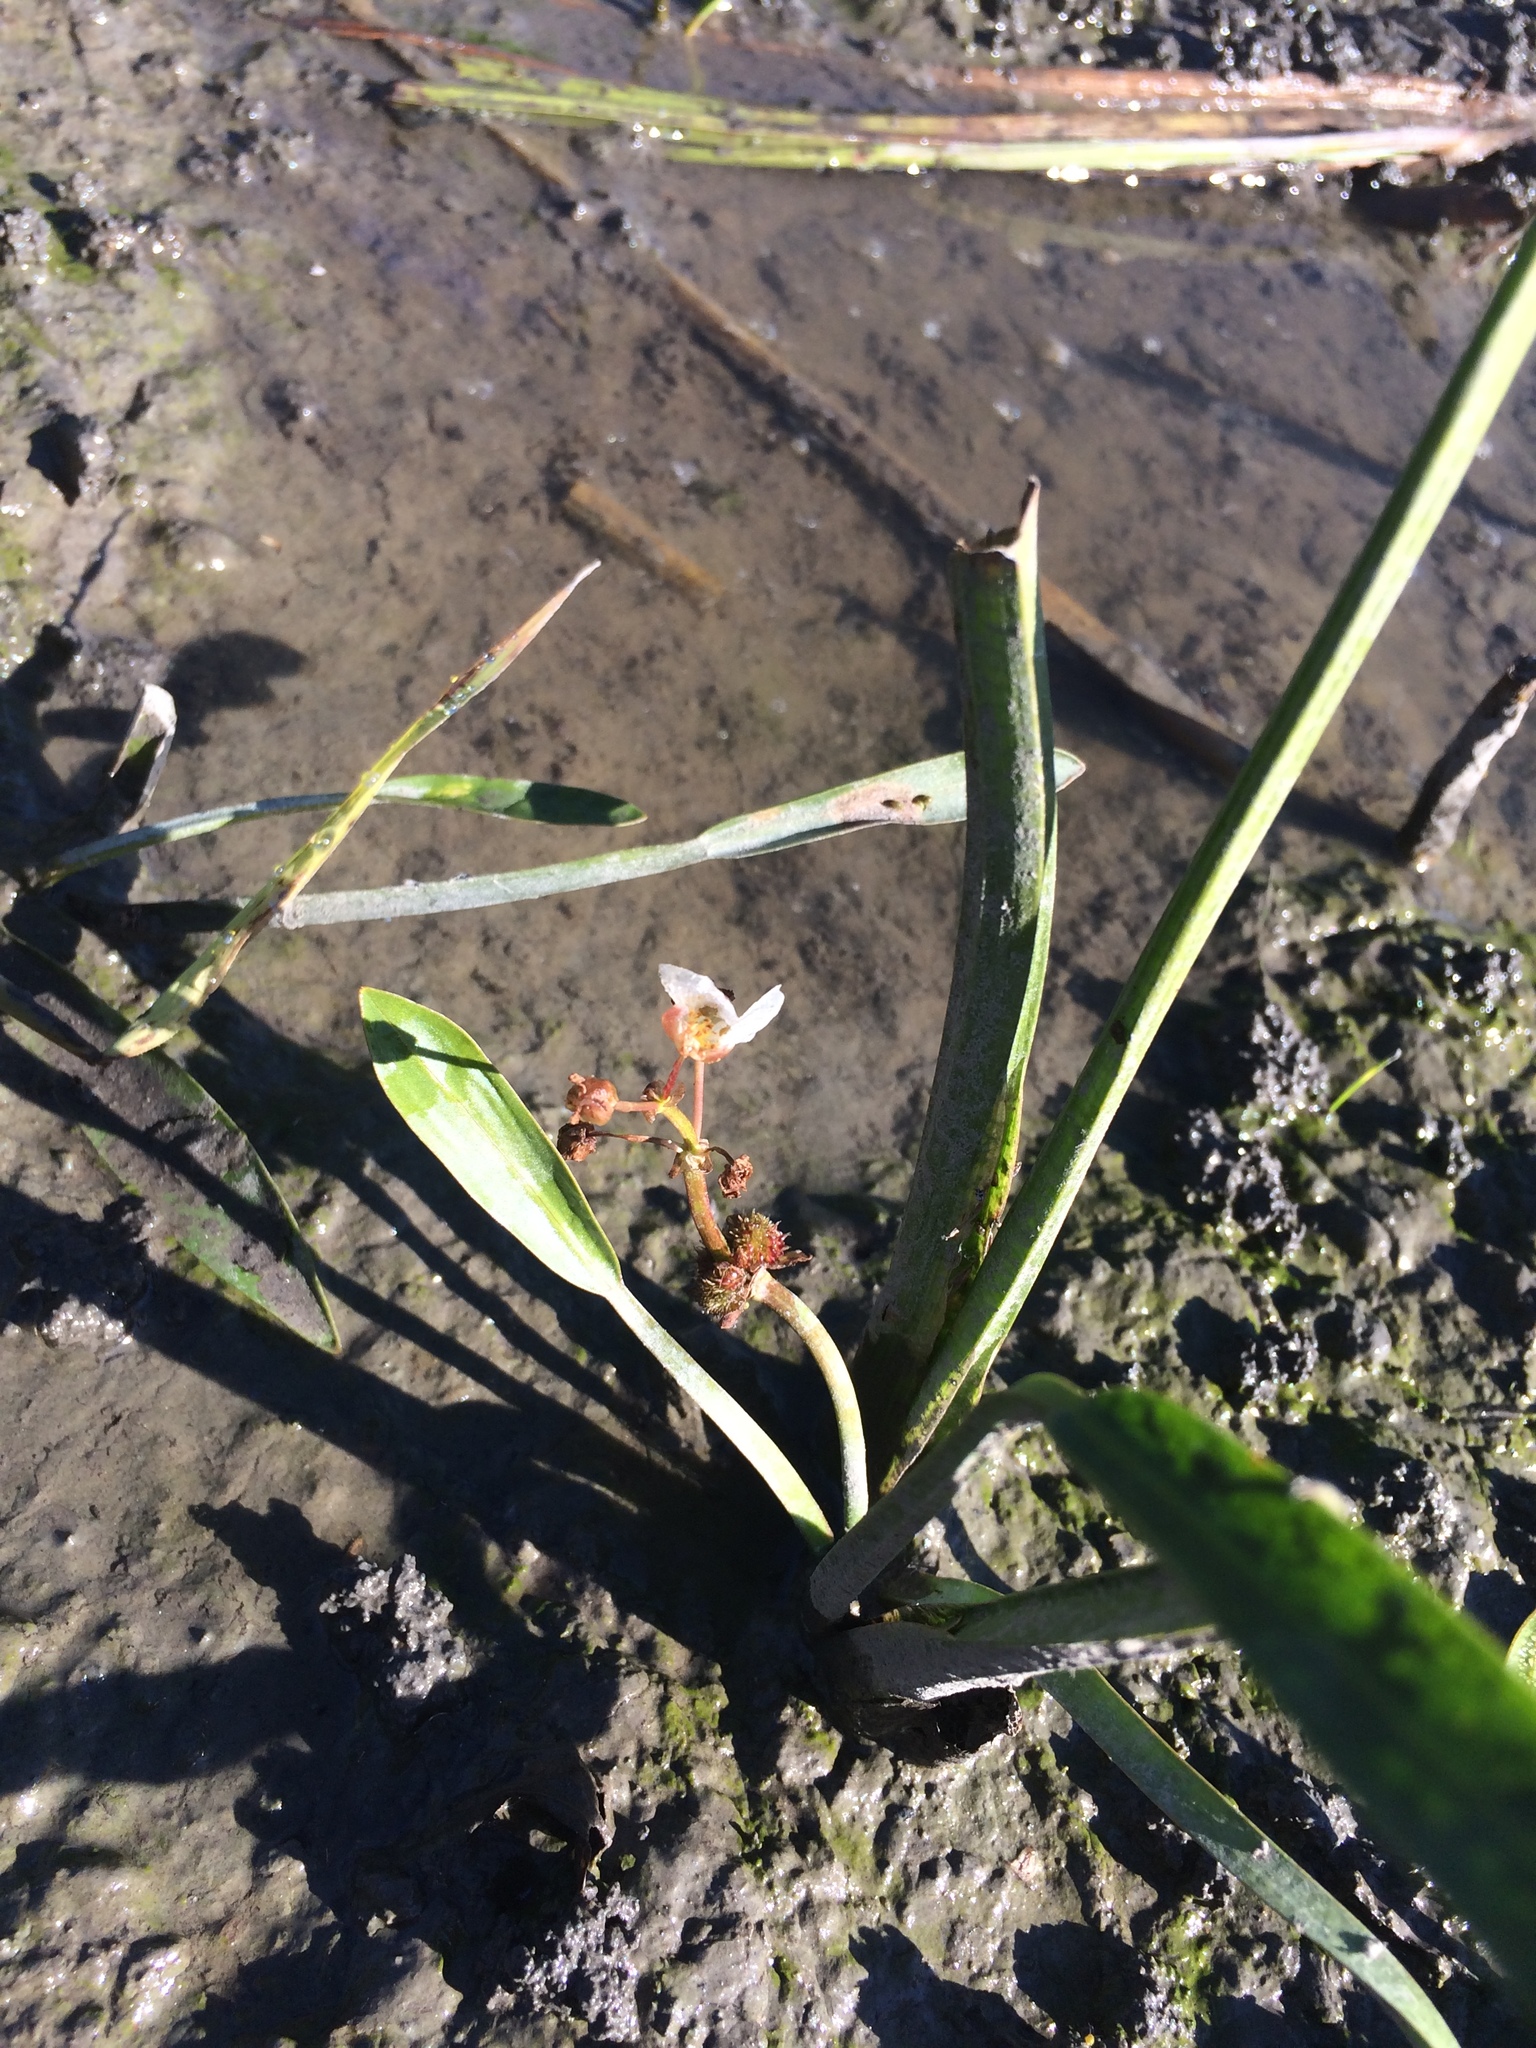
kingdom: Plantae
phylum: Tracheophyta
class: Liliopsida
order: Alismatales
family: Alismataceae
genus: Sagittaria
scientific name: Sagittaria rigida
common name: Canadian arrowhead
